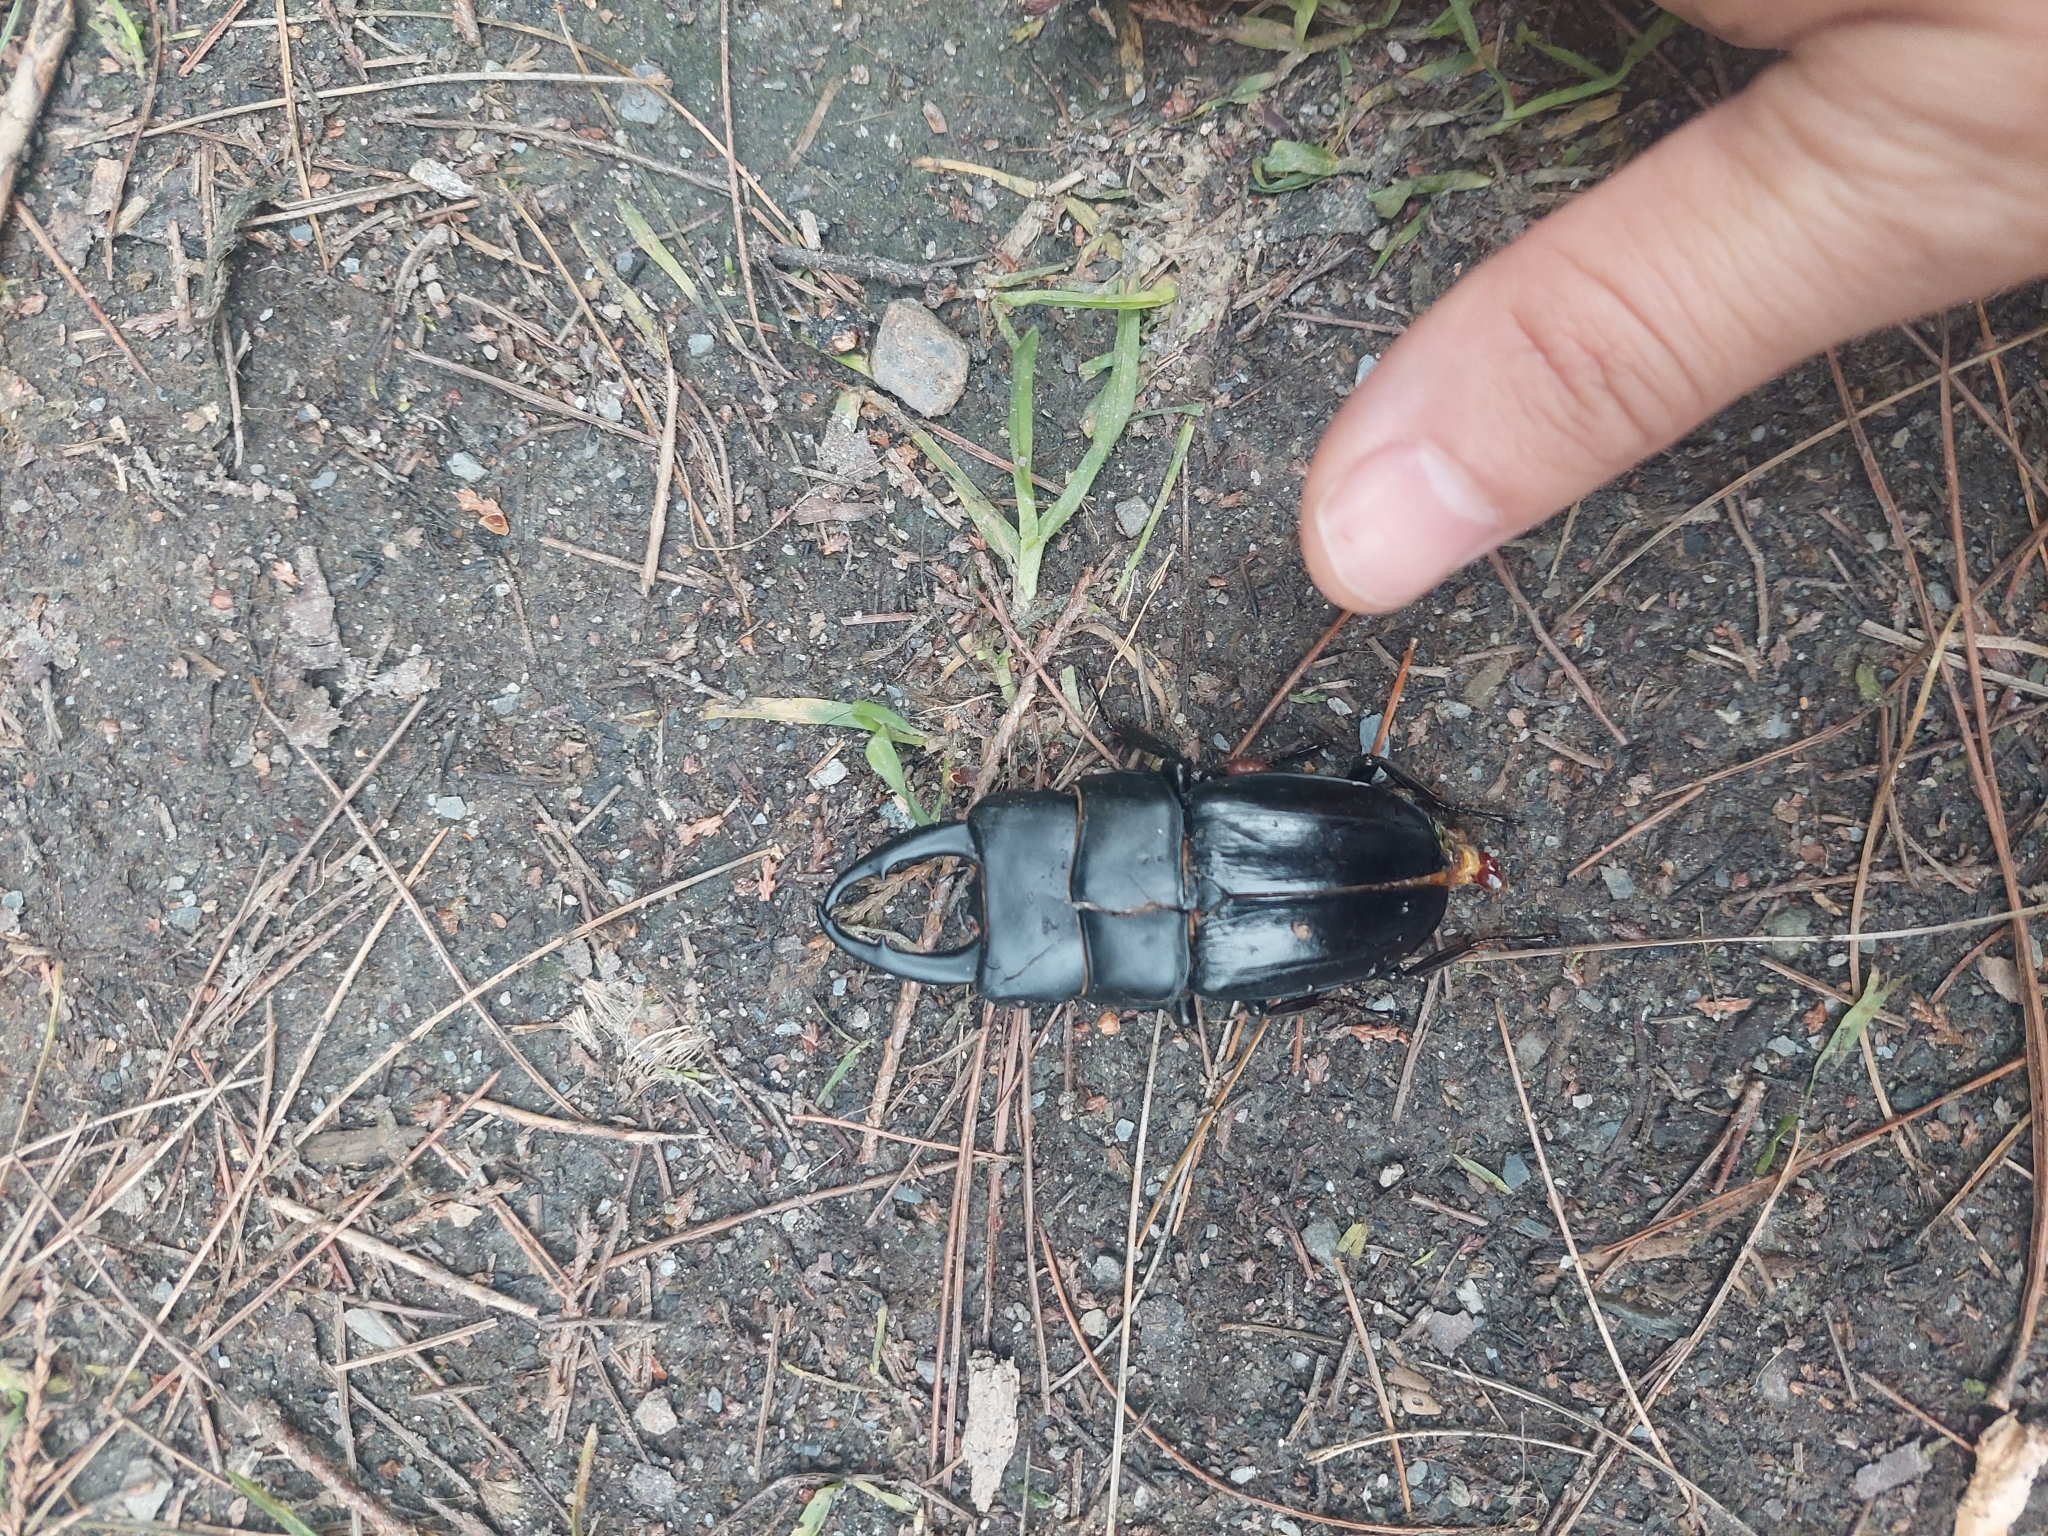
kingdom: Animalia
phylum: Arthropoda
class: Insecta
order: Coleoptera
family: Lucanidae
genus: Dorcus
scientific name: Dorcus miwai
